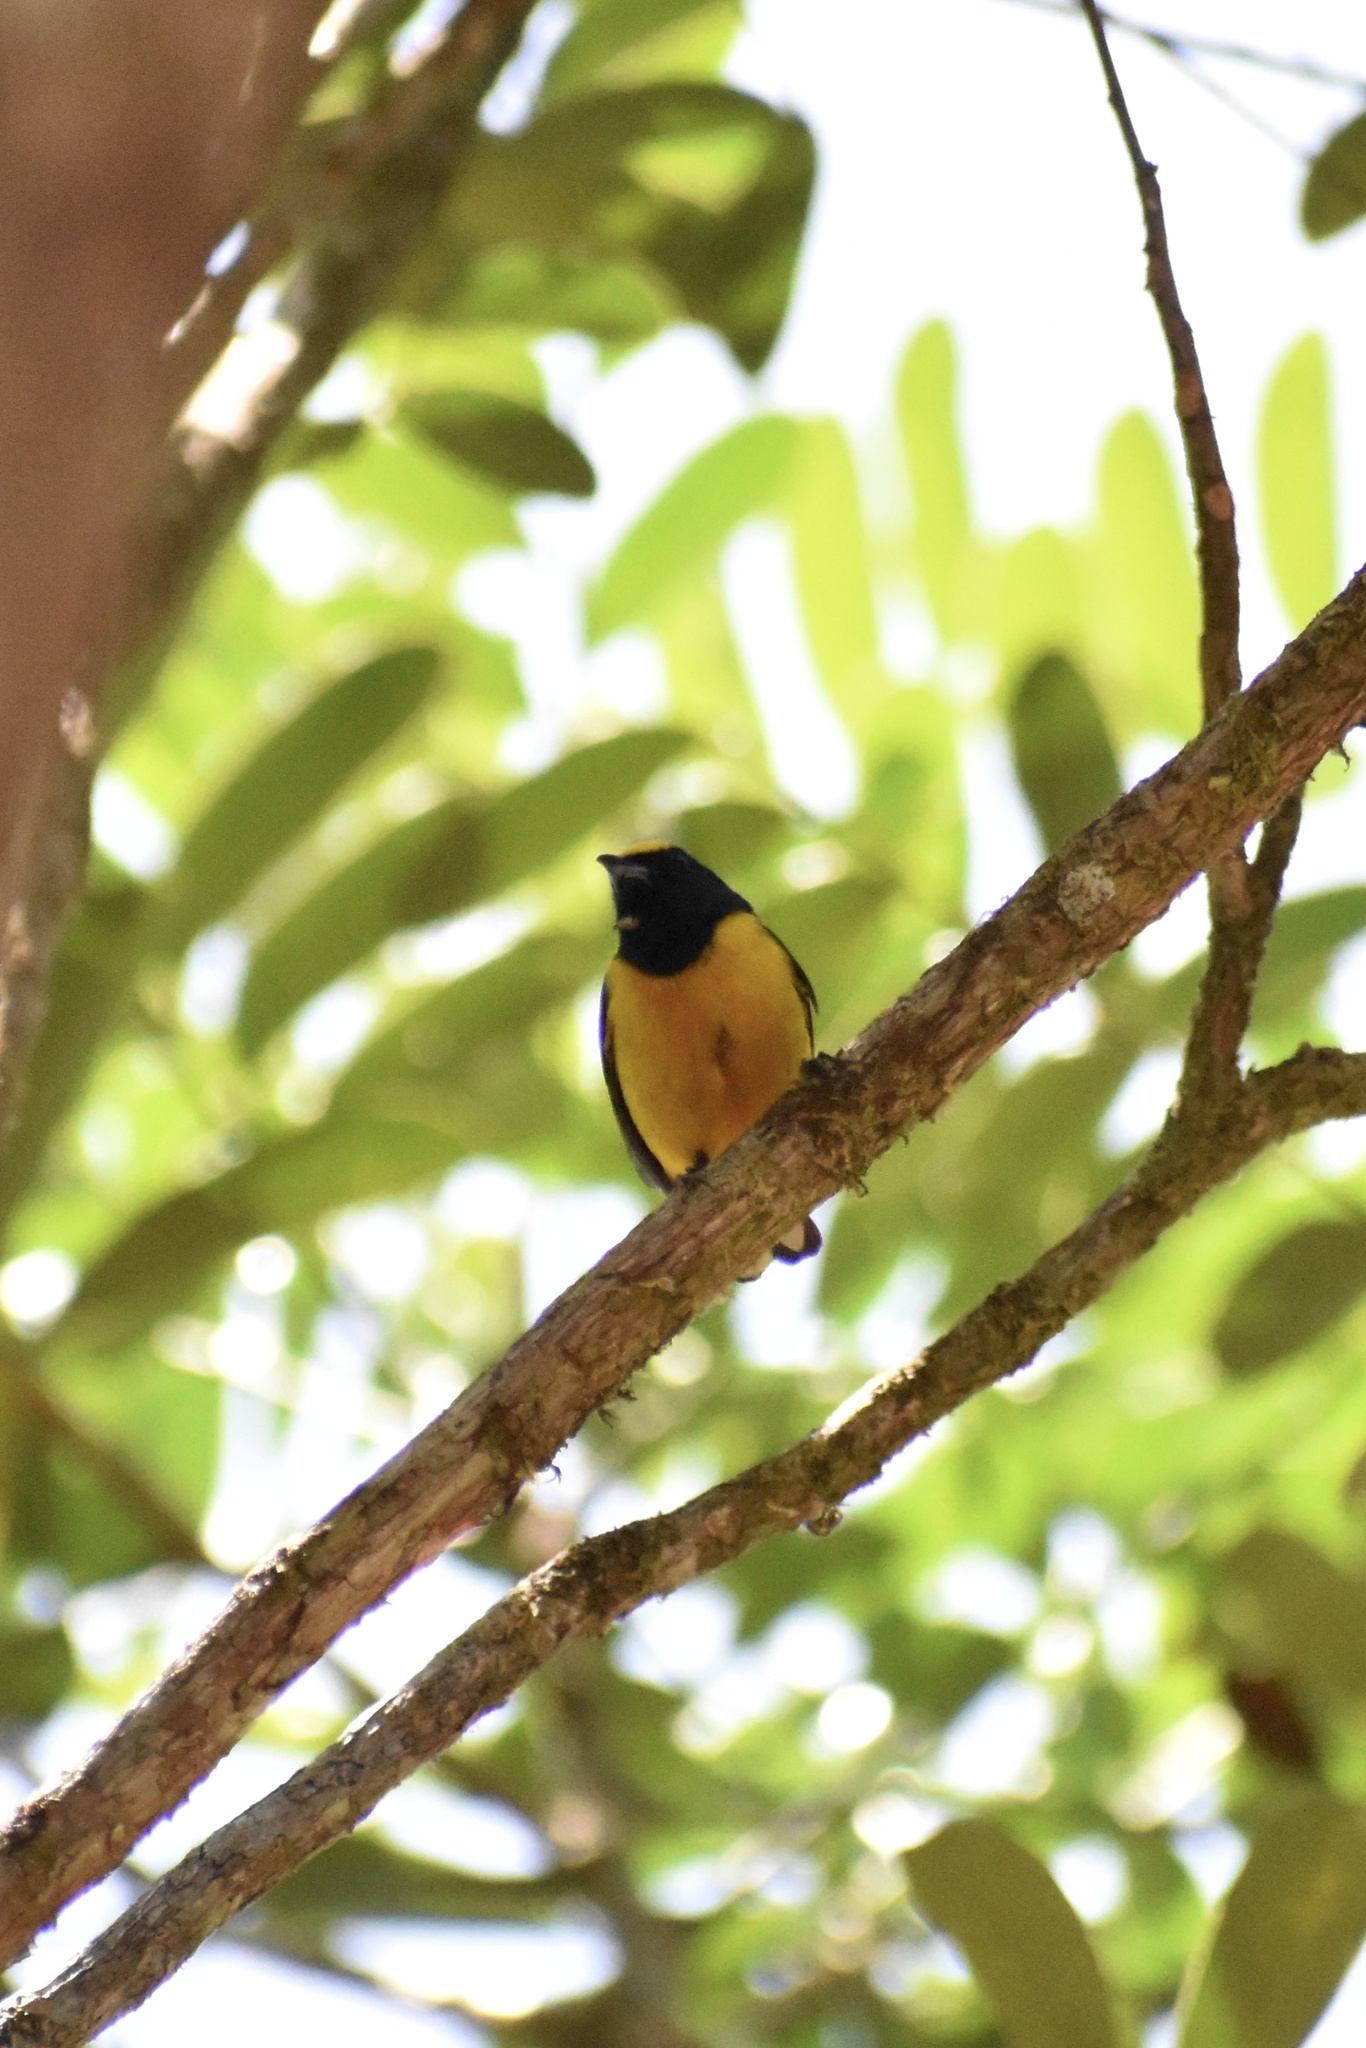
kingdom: Animalia
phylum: Chordata
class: Aves
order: Passeriformes
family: Fringillidae
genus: Euphonia
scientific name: Euphonia luteicapilla
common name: Yellow-crowned euphonia
